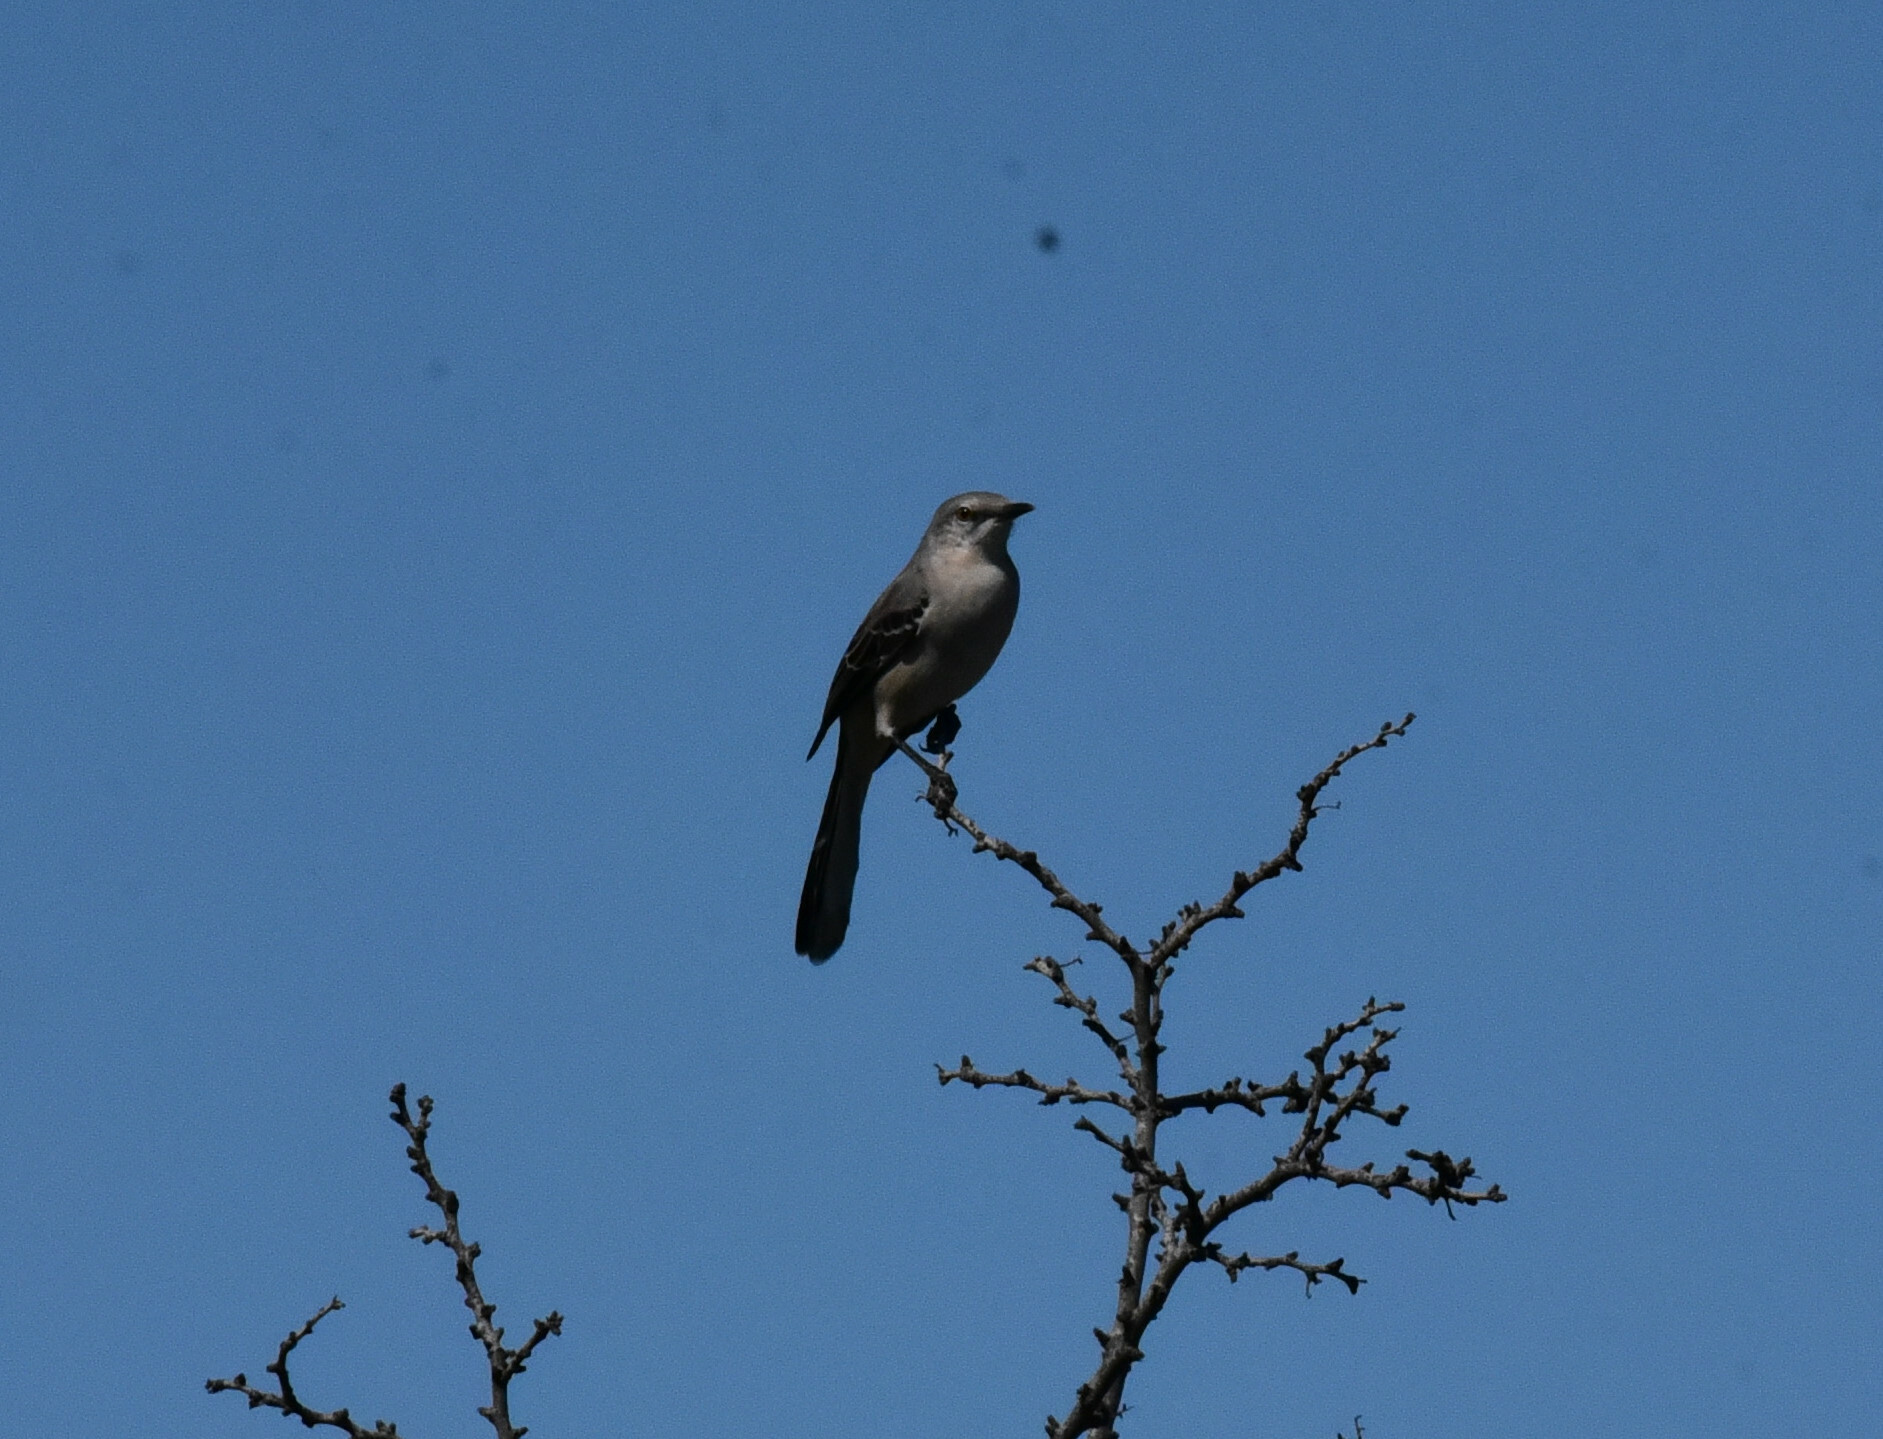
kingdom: Animalia
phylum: Chordata
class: Aves
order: Passeriformes
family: Mimidae
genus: Mimus
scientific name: Mimus polyglottos
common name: Northern mockingbird
